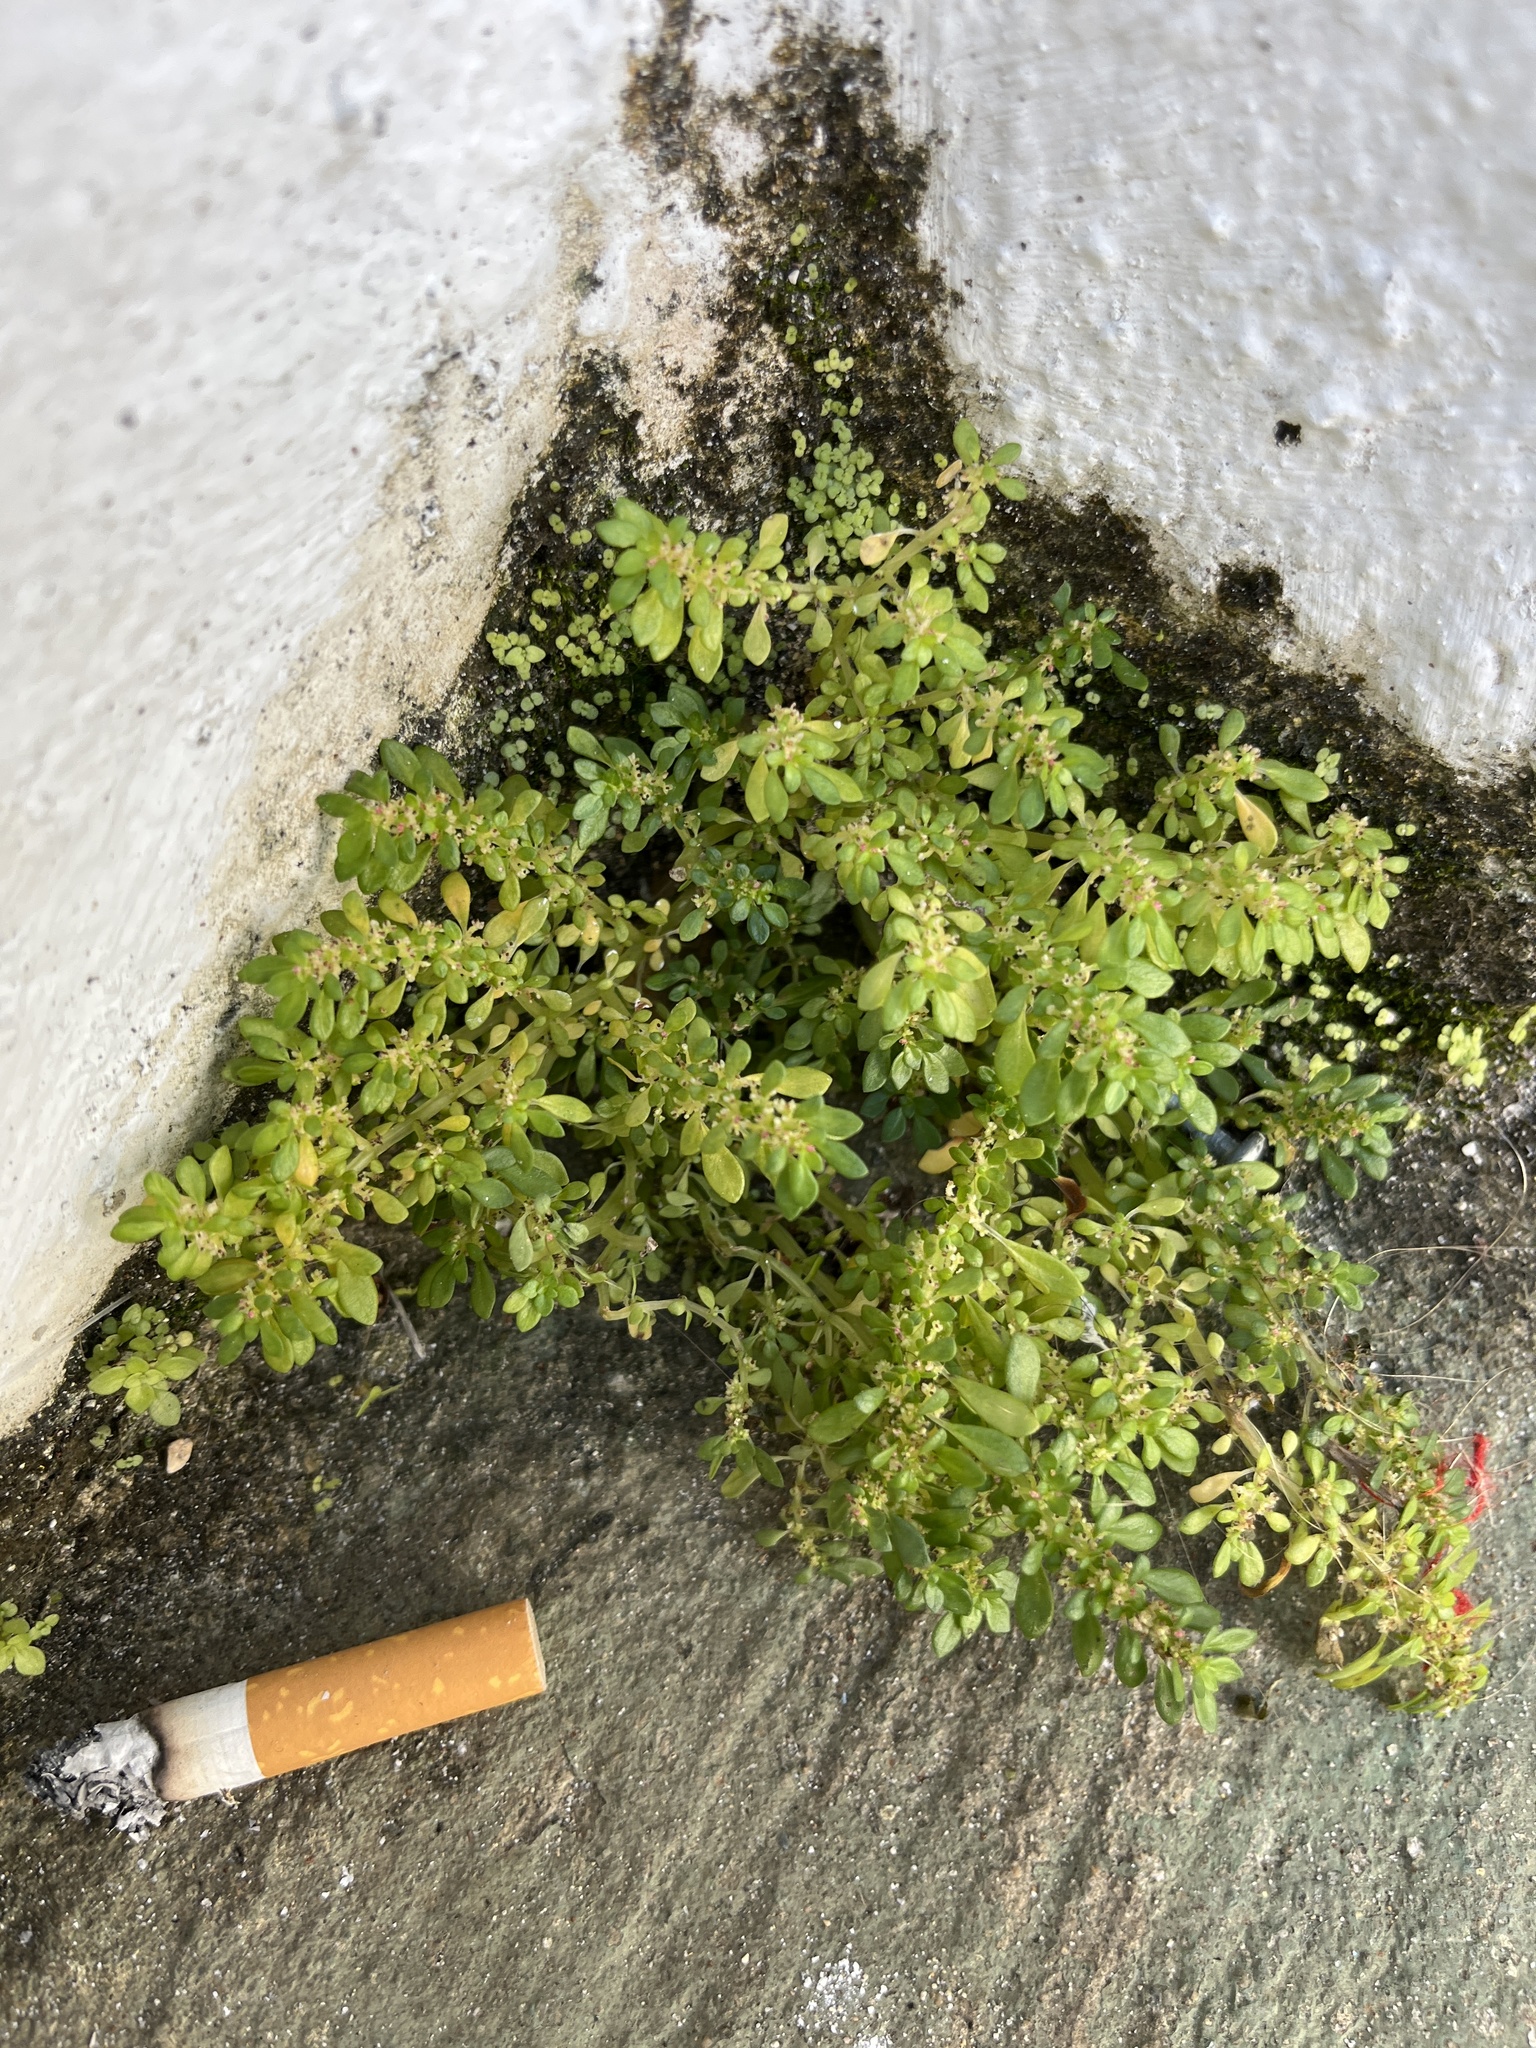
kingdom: Plantae
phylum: Tracheophyta
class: Magnoliopsida
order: Rosales
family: Urticaceae
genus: Pilea
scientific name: Pilea microphylla
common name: Artillery-plant
